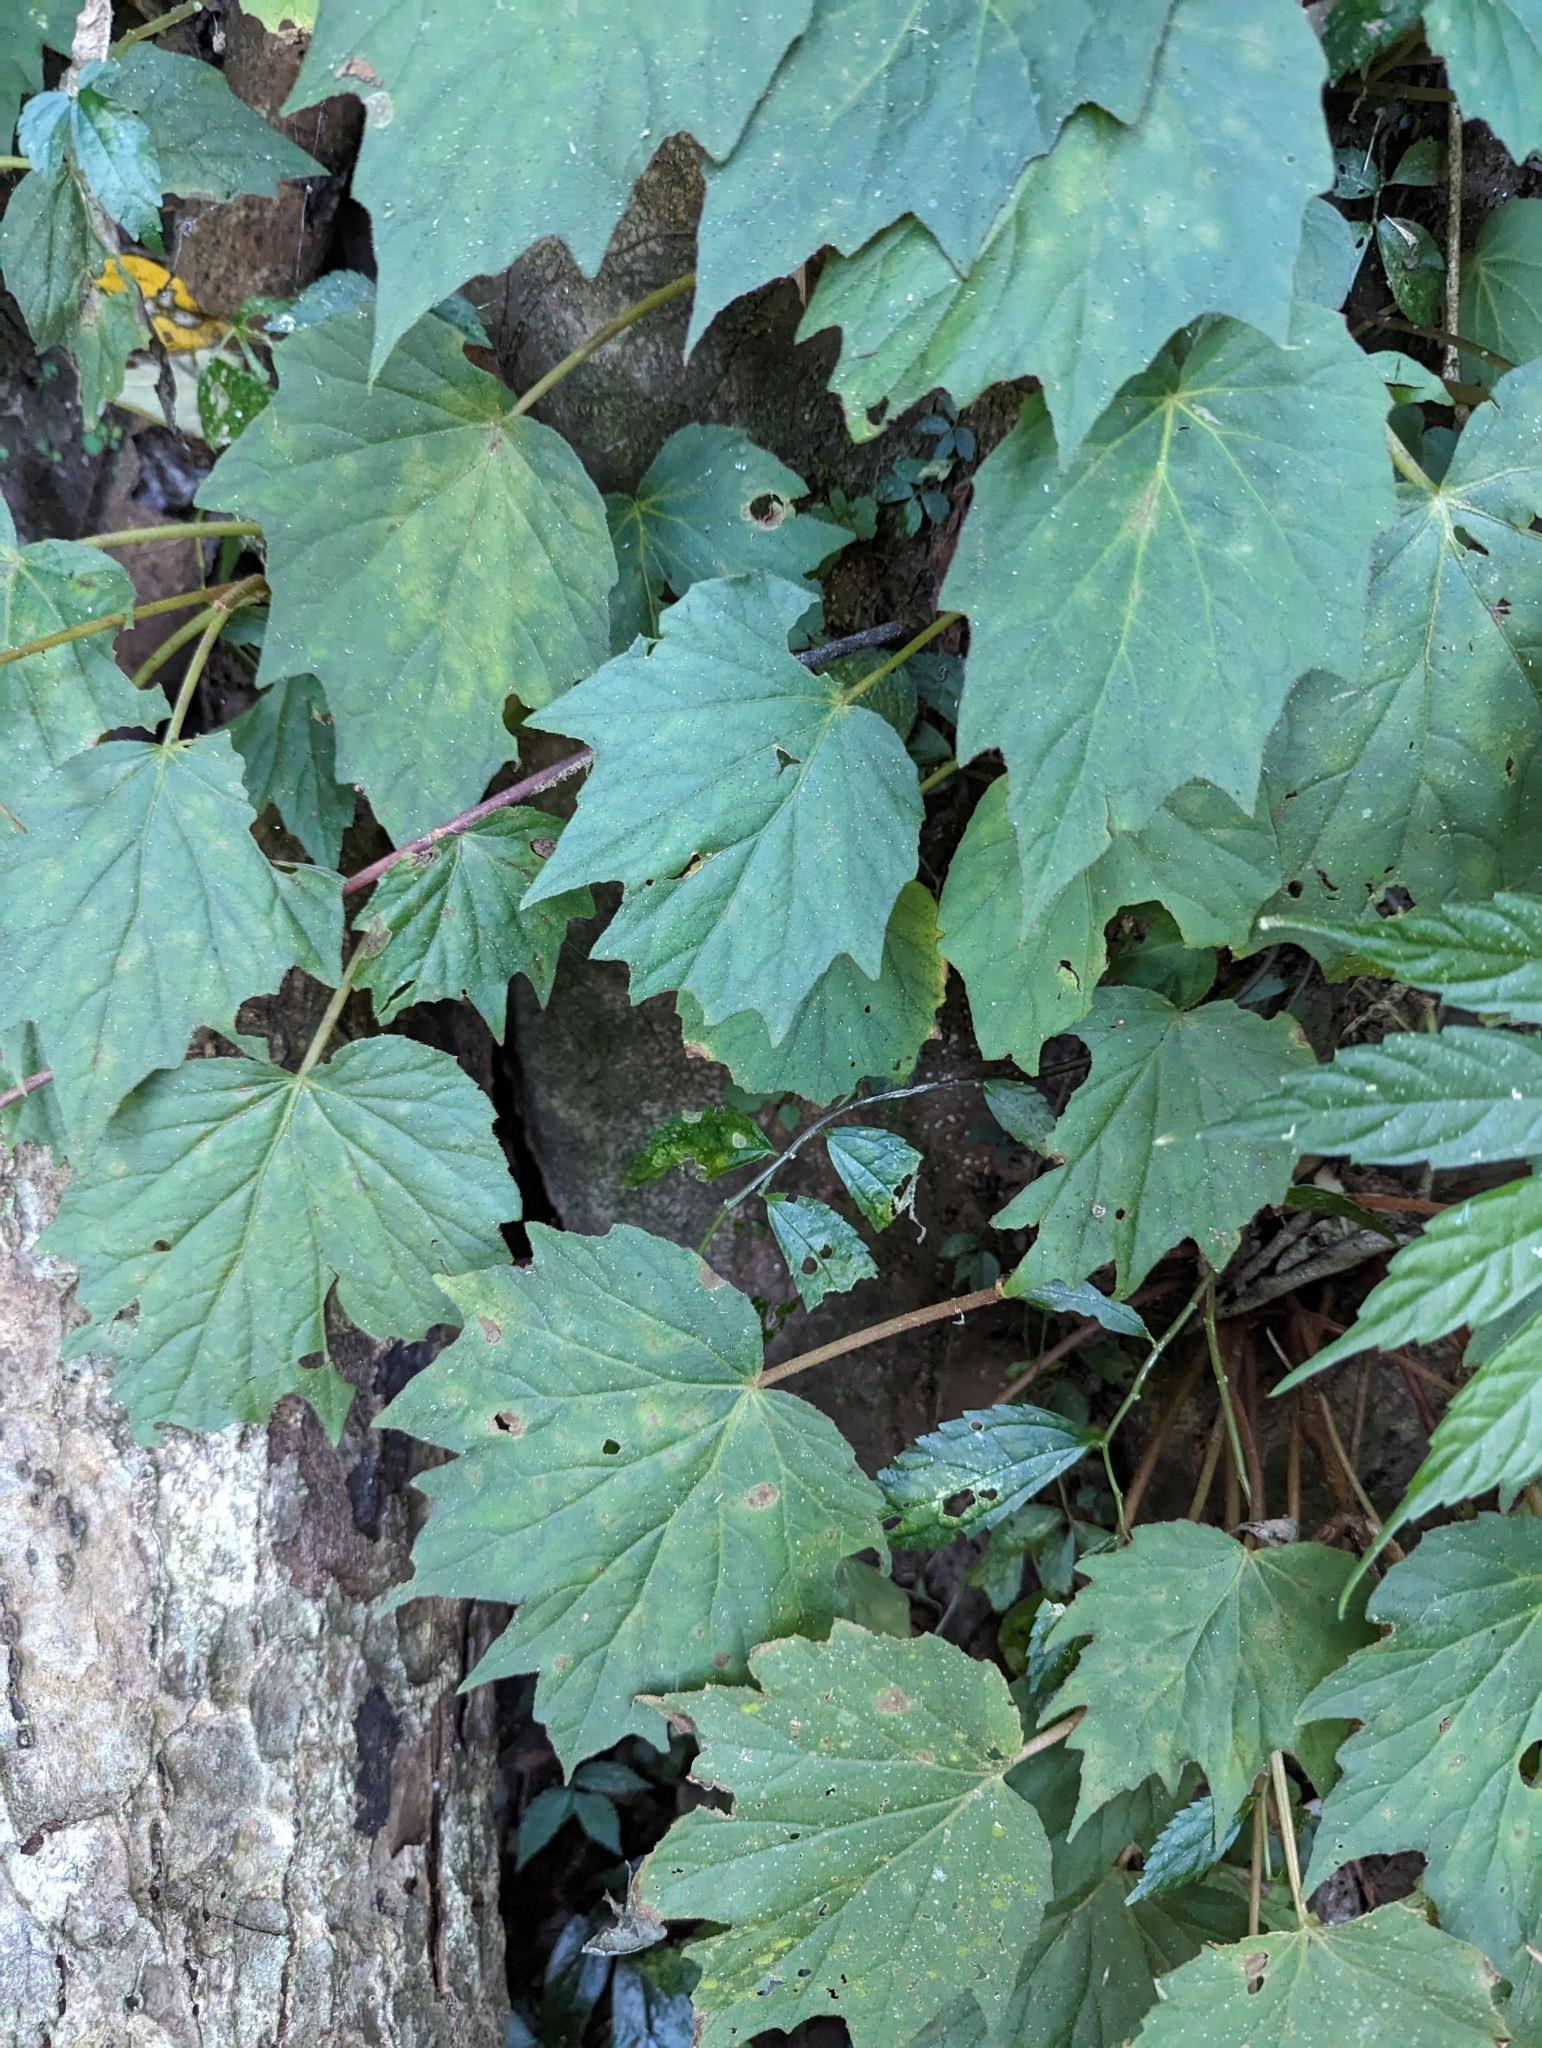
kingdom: Plantae
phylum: Tracheophyta
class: Magnoliopsida
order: Cucurbitales
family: Begoniaceae
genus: Begonia
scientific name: Begonia palmata
